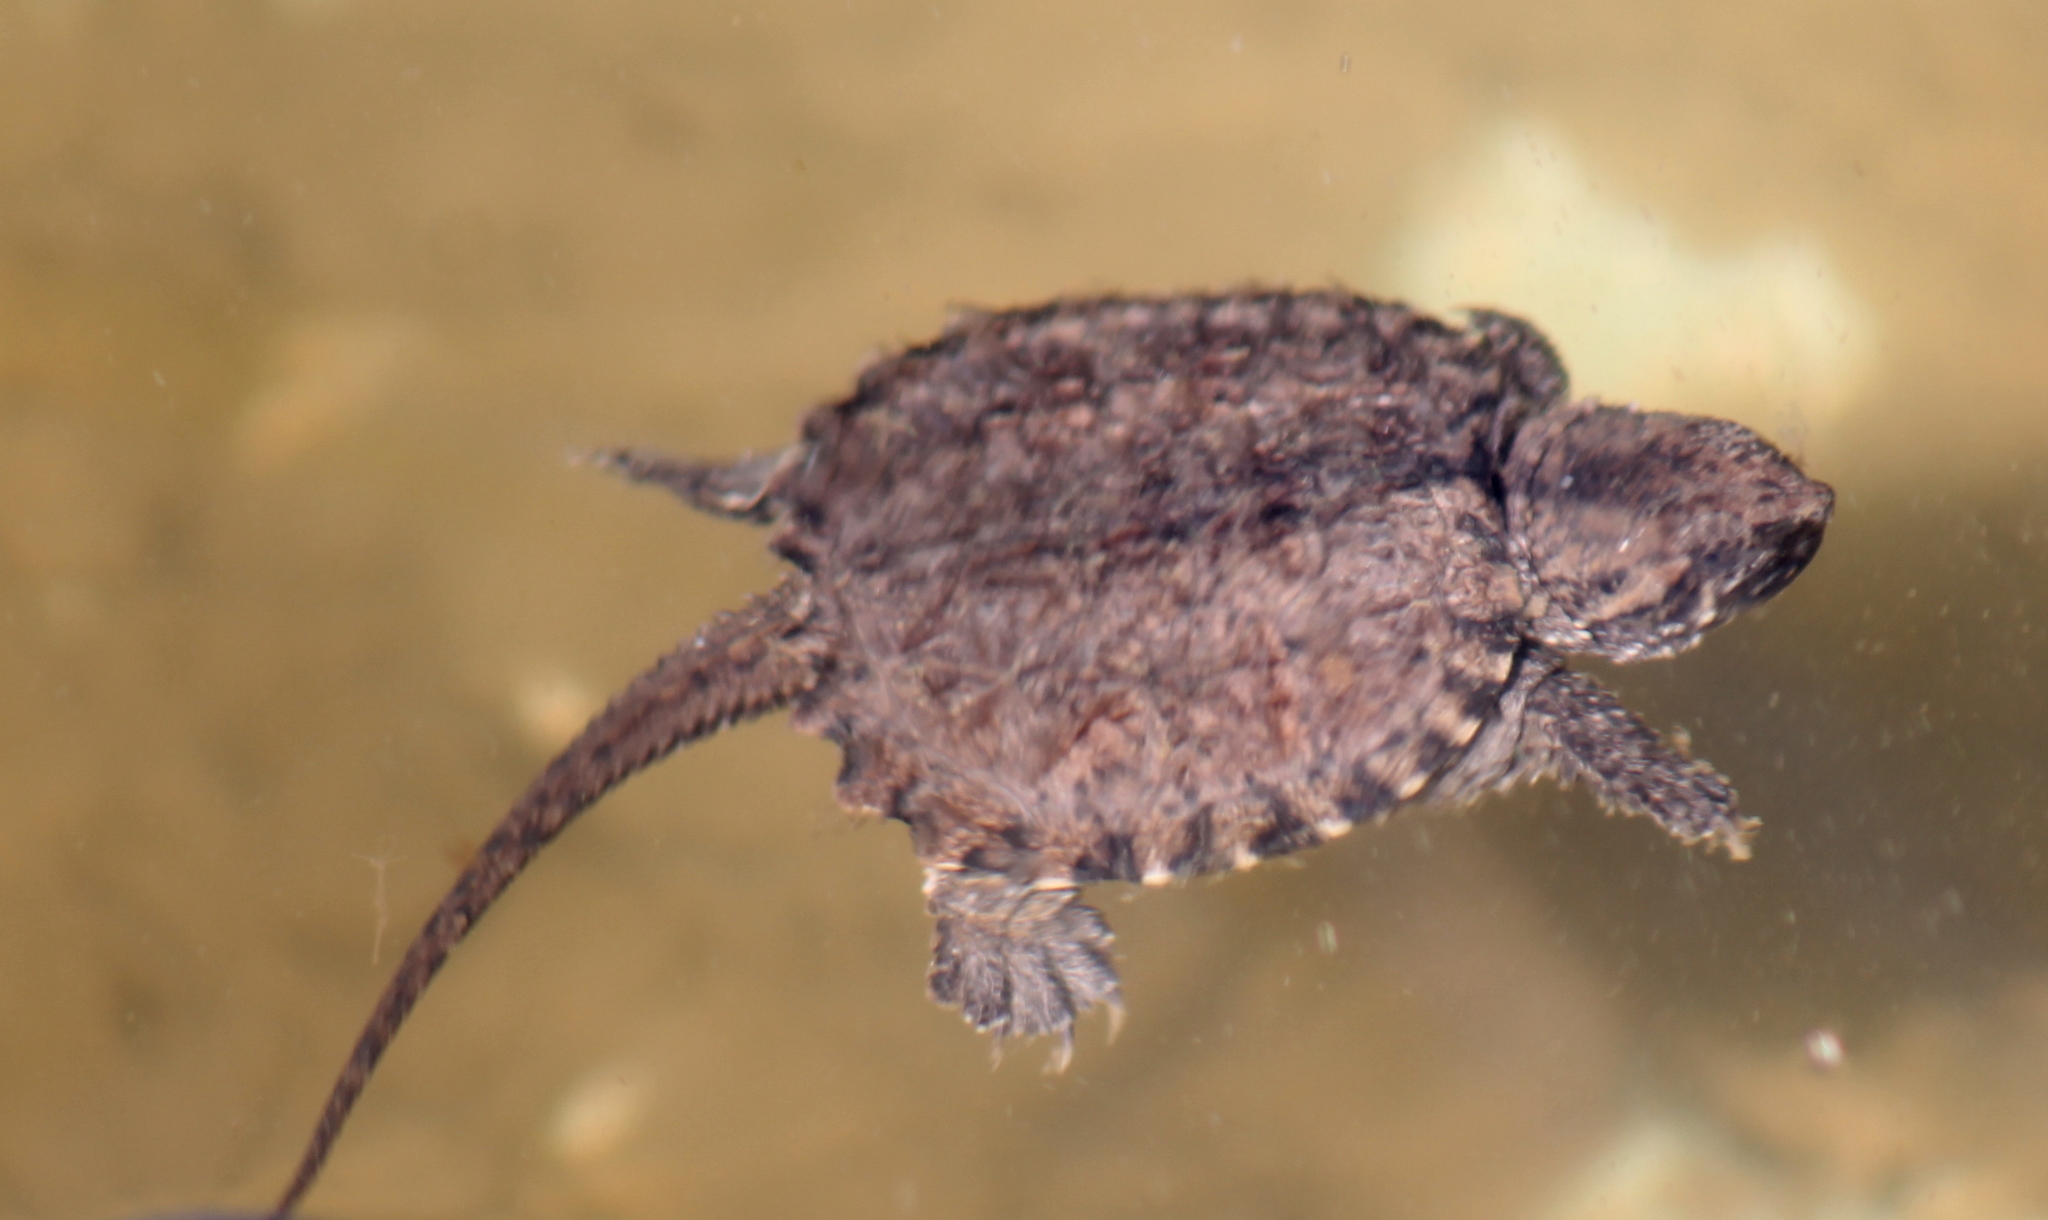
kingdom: Animalia
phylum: Chordata
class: Testudines
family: Chelydridae
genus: Chelydra
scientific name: Chelydra serpentina
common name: Common snapping turtle
